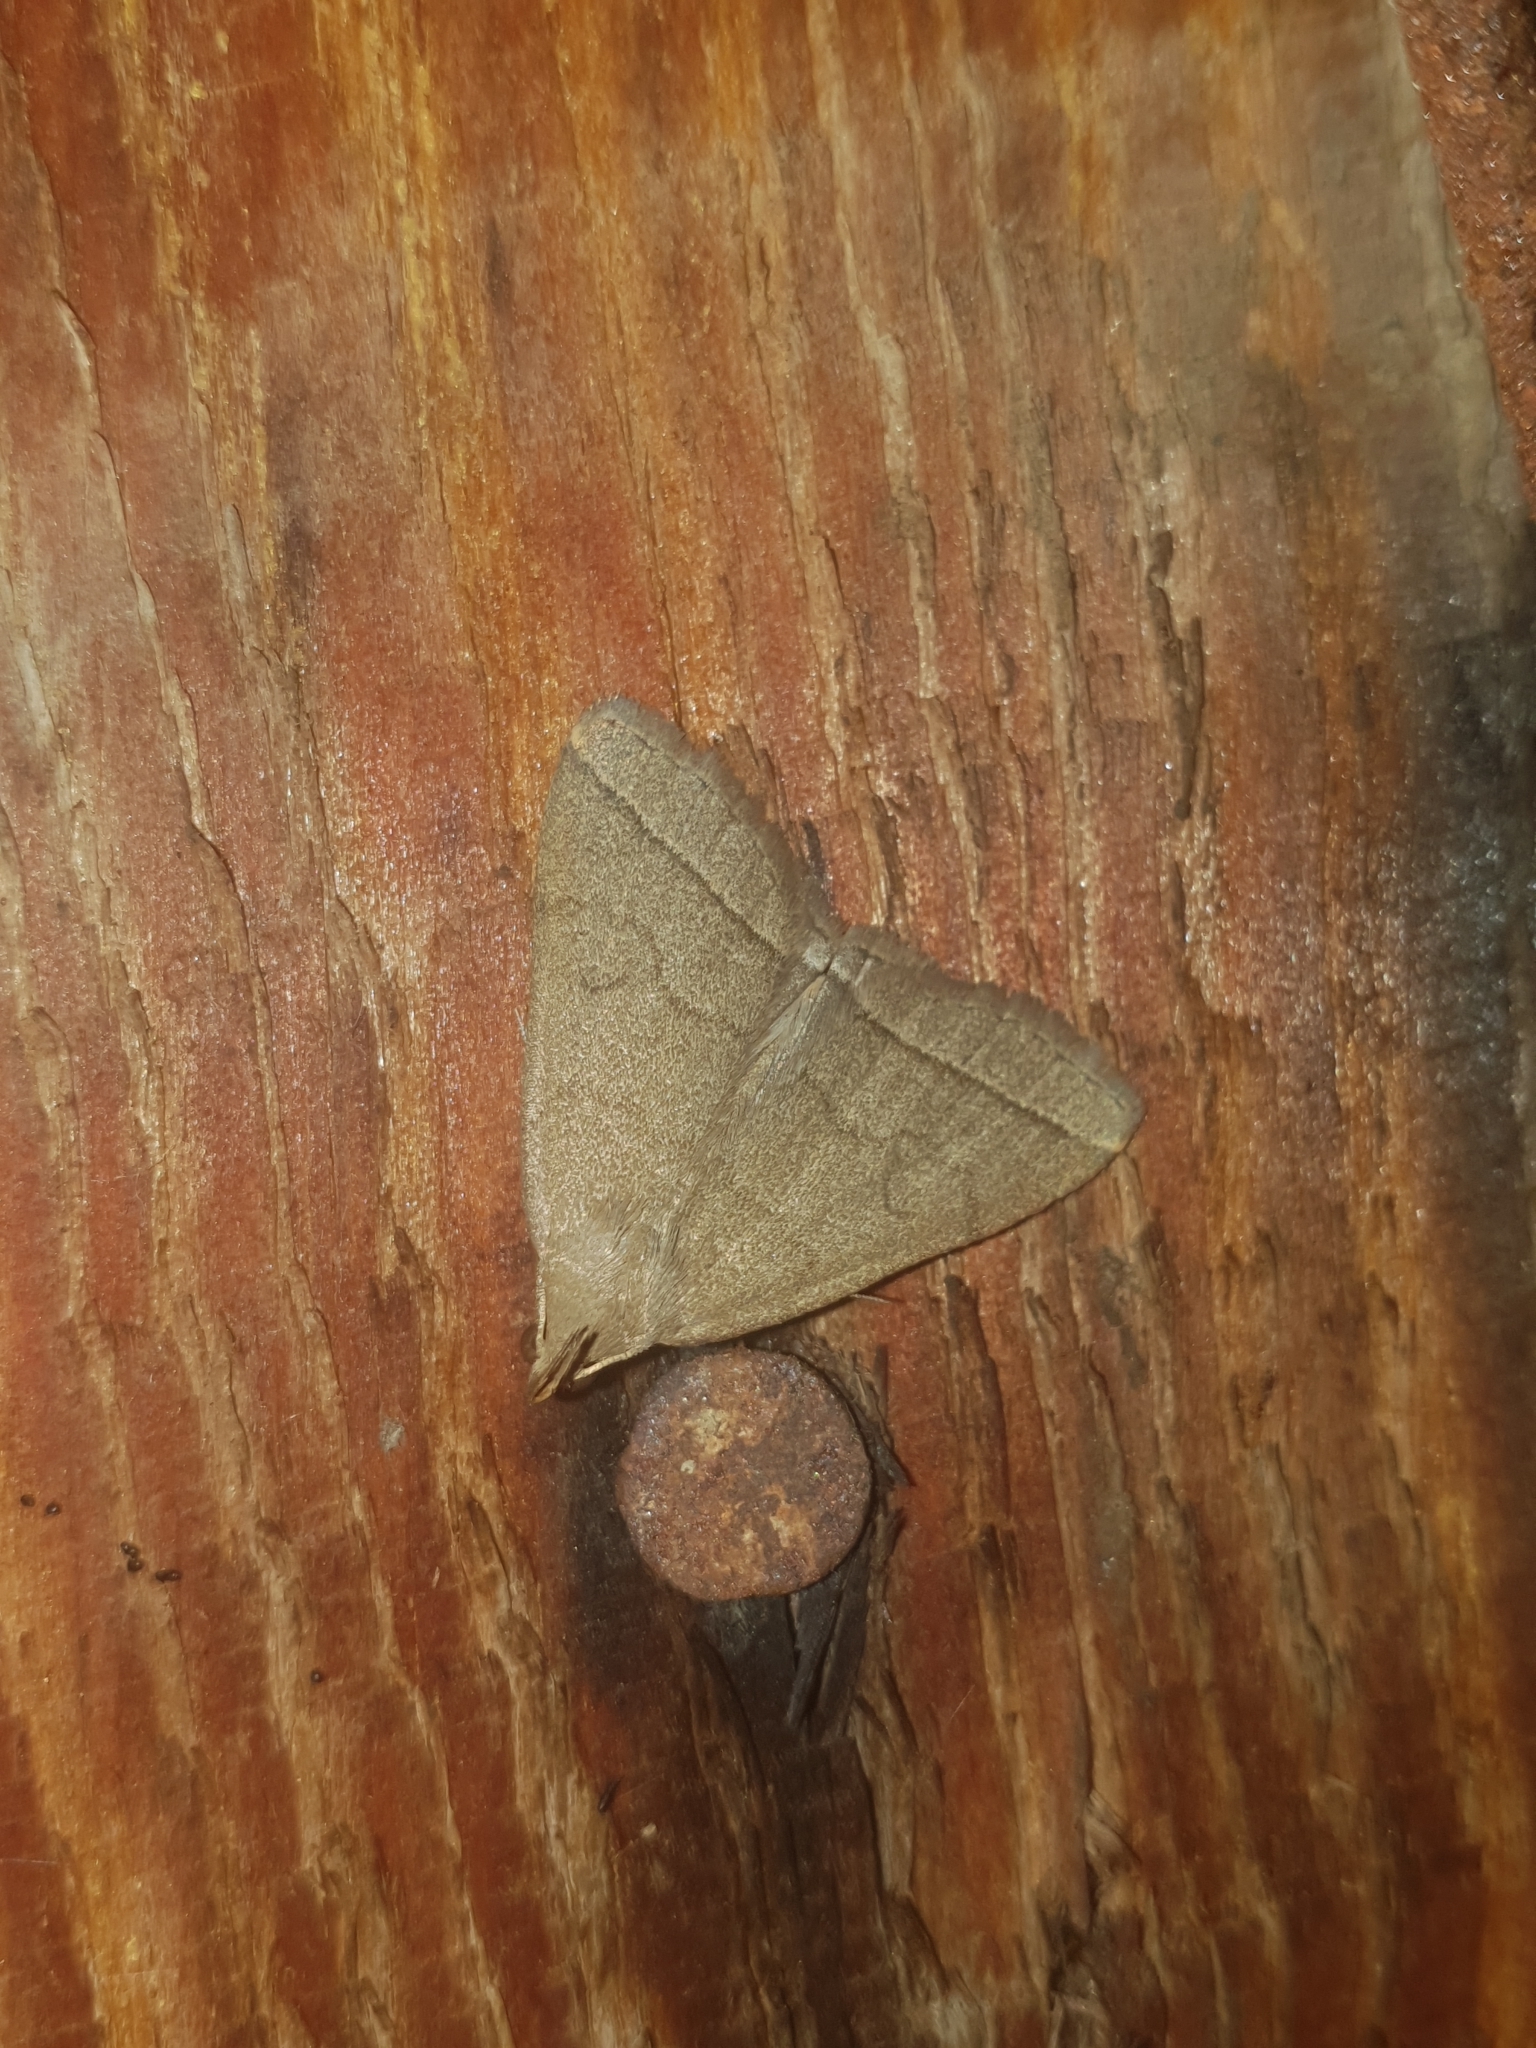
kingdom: Animalia
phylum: Arthropoda
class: Insecta
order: Lepidoptera
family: Erebidae
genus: Herminia
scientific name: Herminia tarsipennalis
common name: Fan-foot
